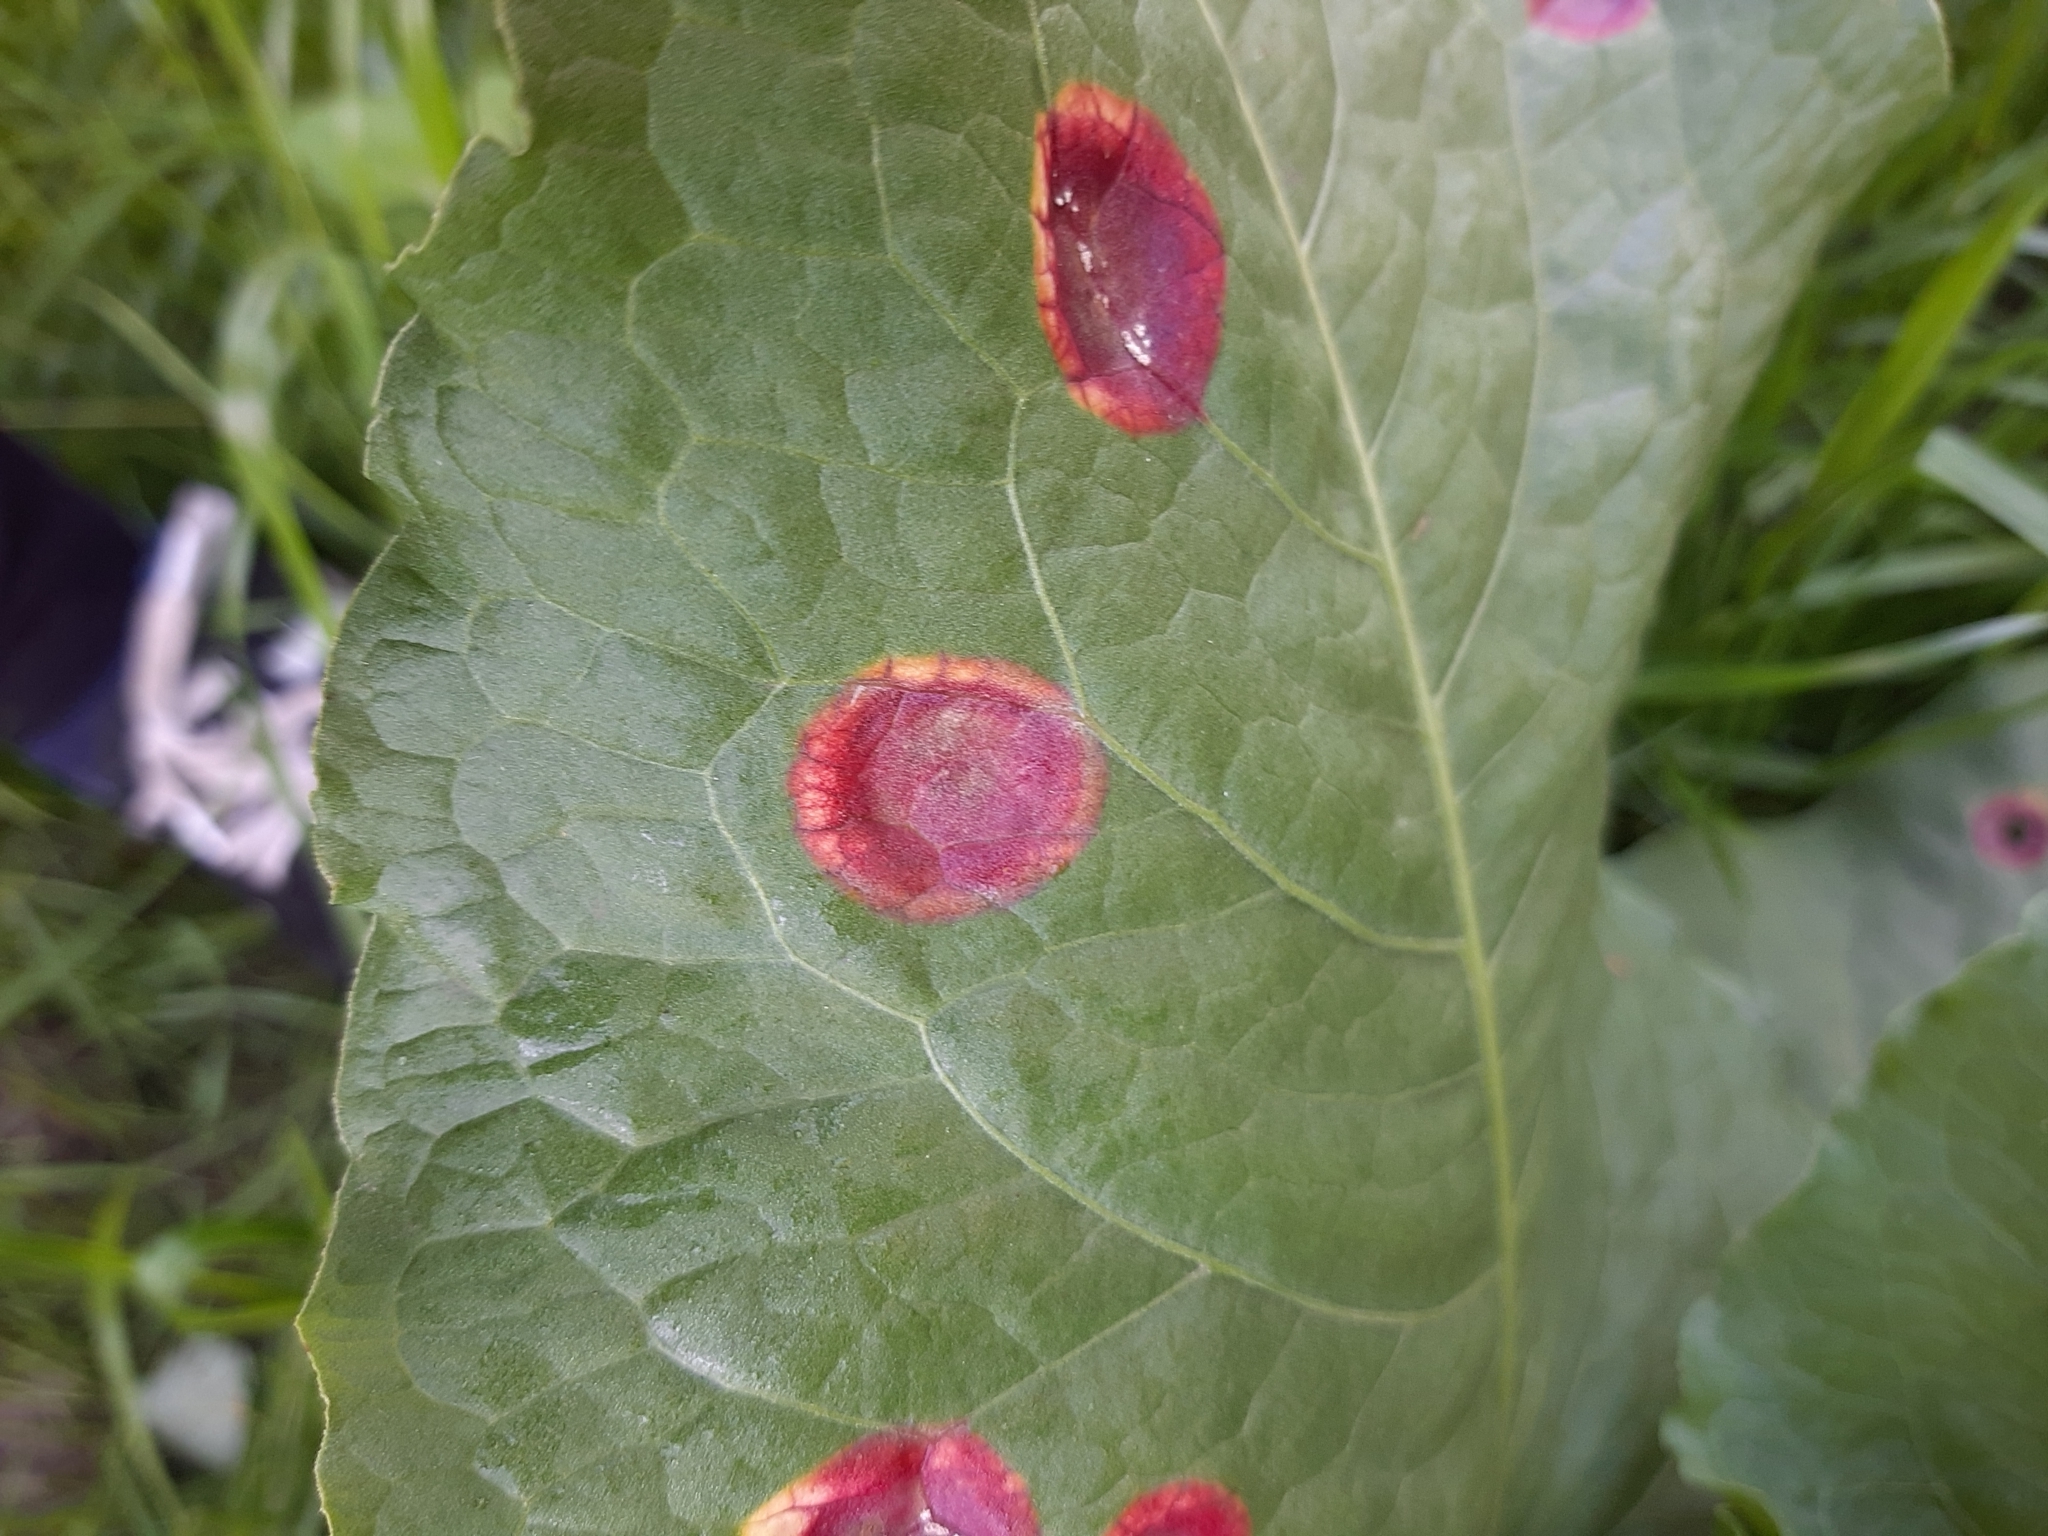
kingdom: Fungi
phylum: Basidiomycota
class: Pucciniomycetes
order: Pucciniales
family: Pucciniaceae
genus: Puccinia
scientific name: Puccinia phragmitis
